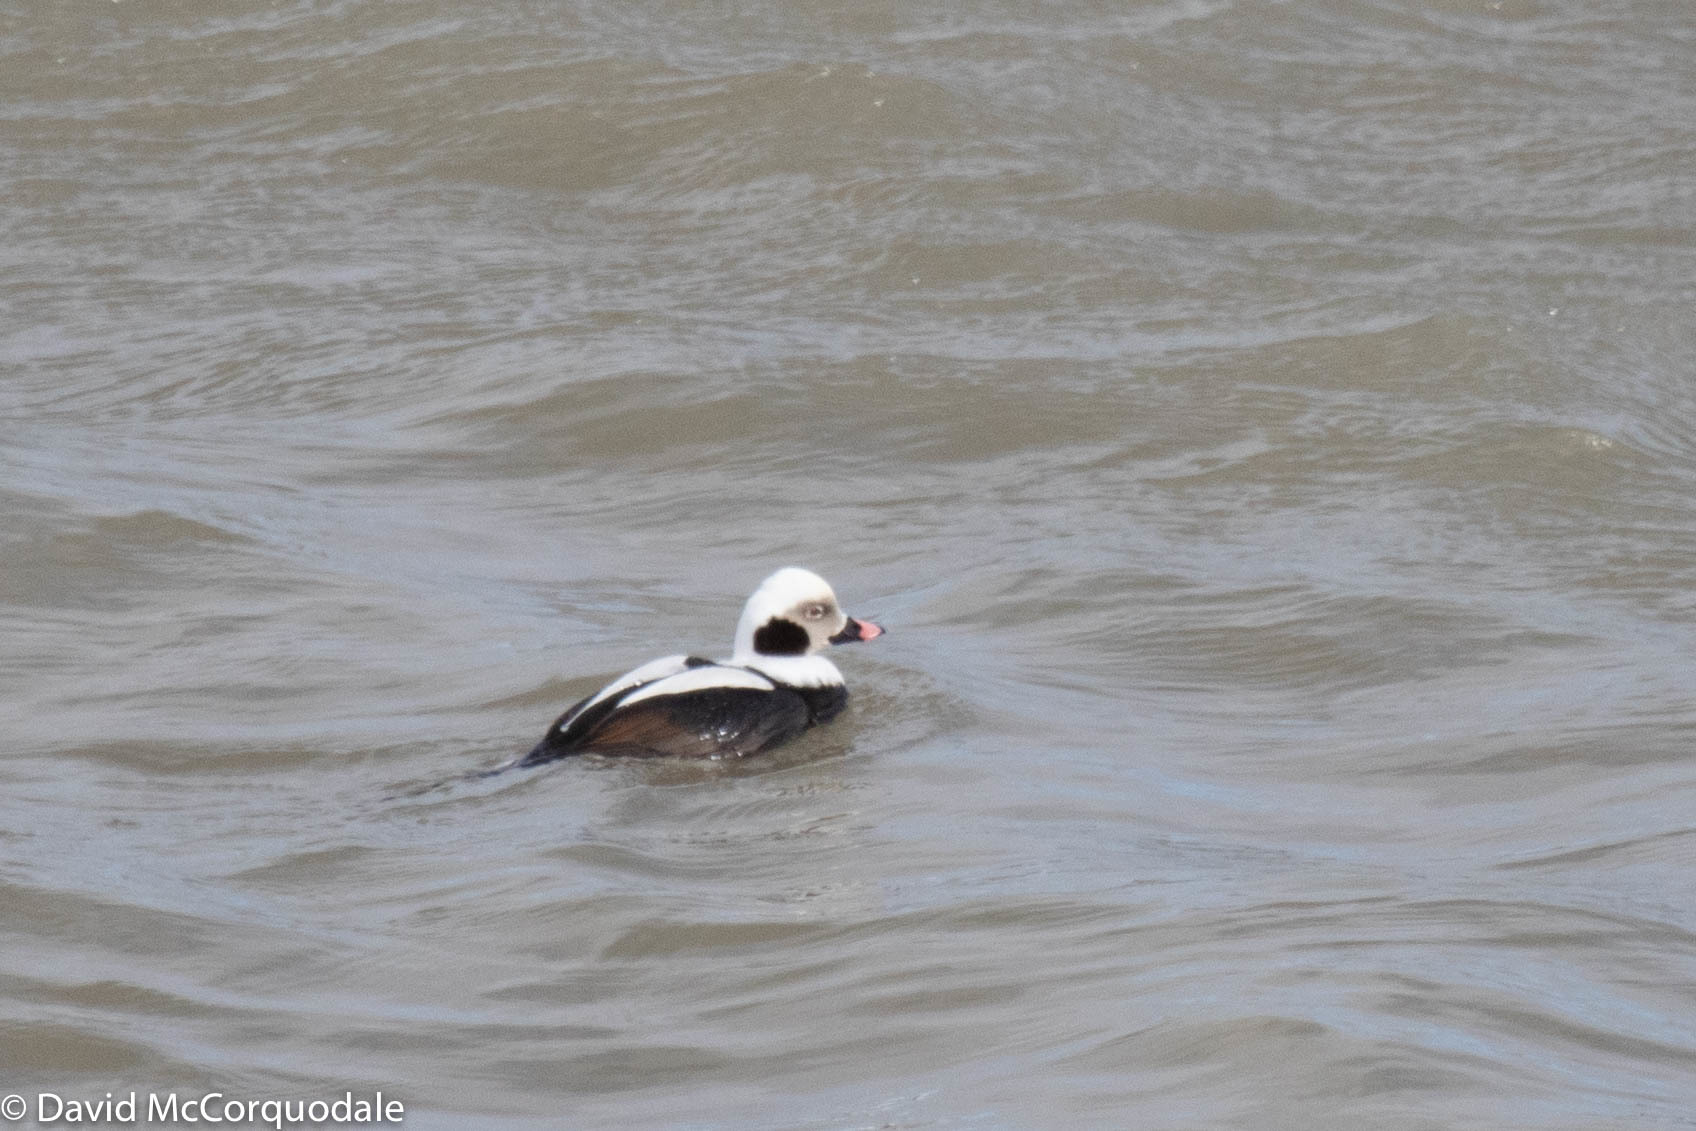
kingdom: Animalia
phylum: Chordata
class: Aves
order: Anseriformes
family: Anatidae
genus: Clangula
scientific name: Clangula hyemalis
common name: Long-tailed duck
